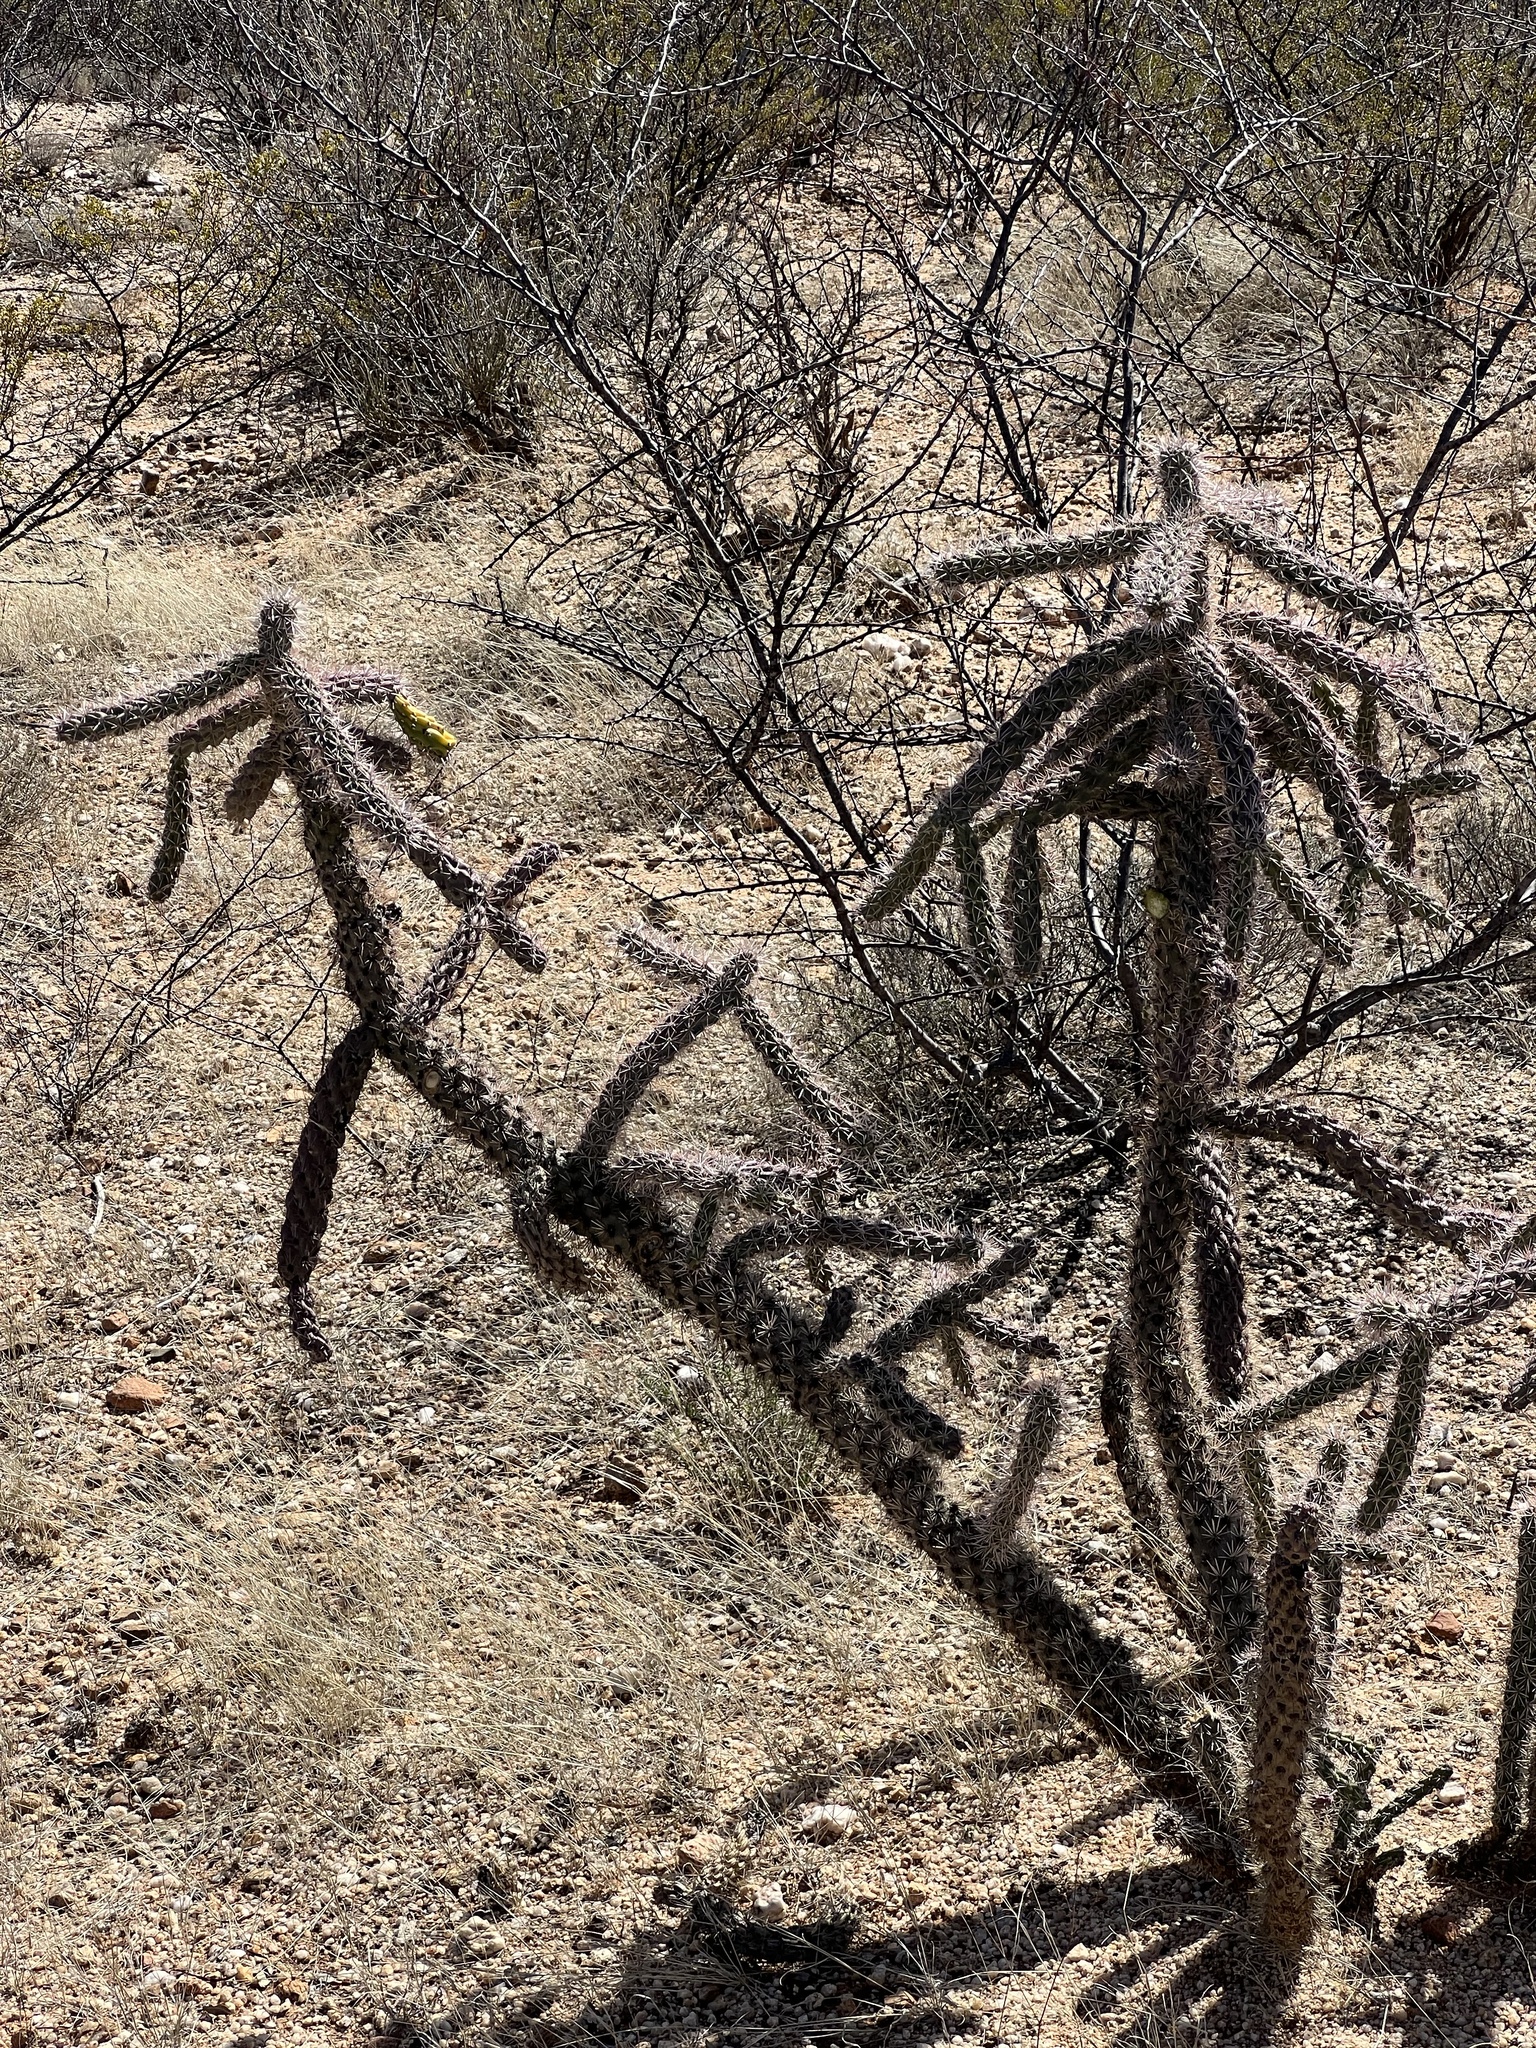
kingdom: Plantae
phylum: Tracheophyta
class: Magnoliopsida
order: Caryophyllales
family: Cactaceae
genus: Cylindropuntia
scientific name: Cylindropuntia imbricata
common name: Candelabrum cactus
